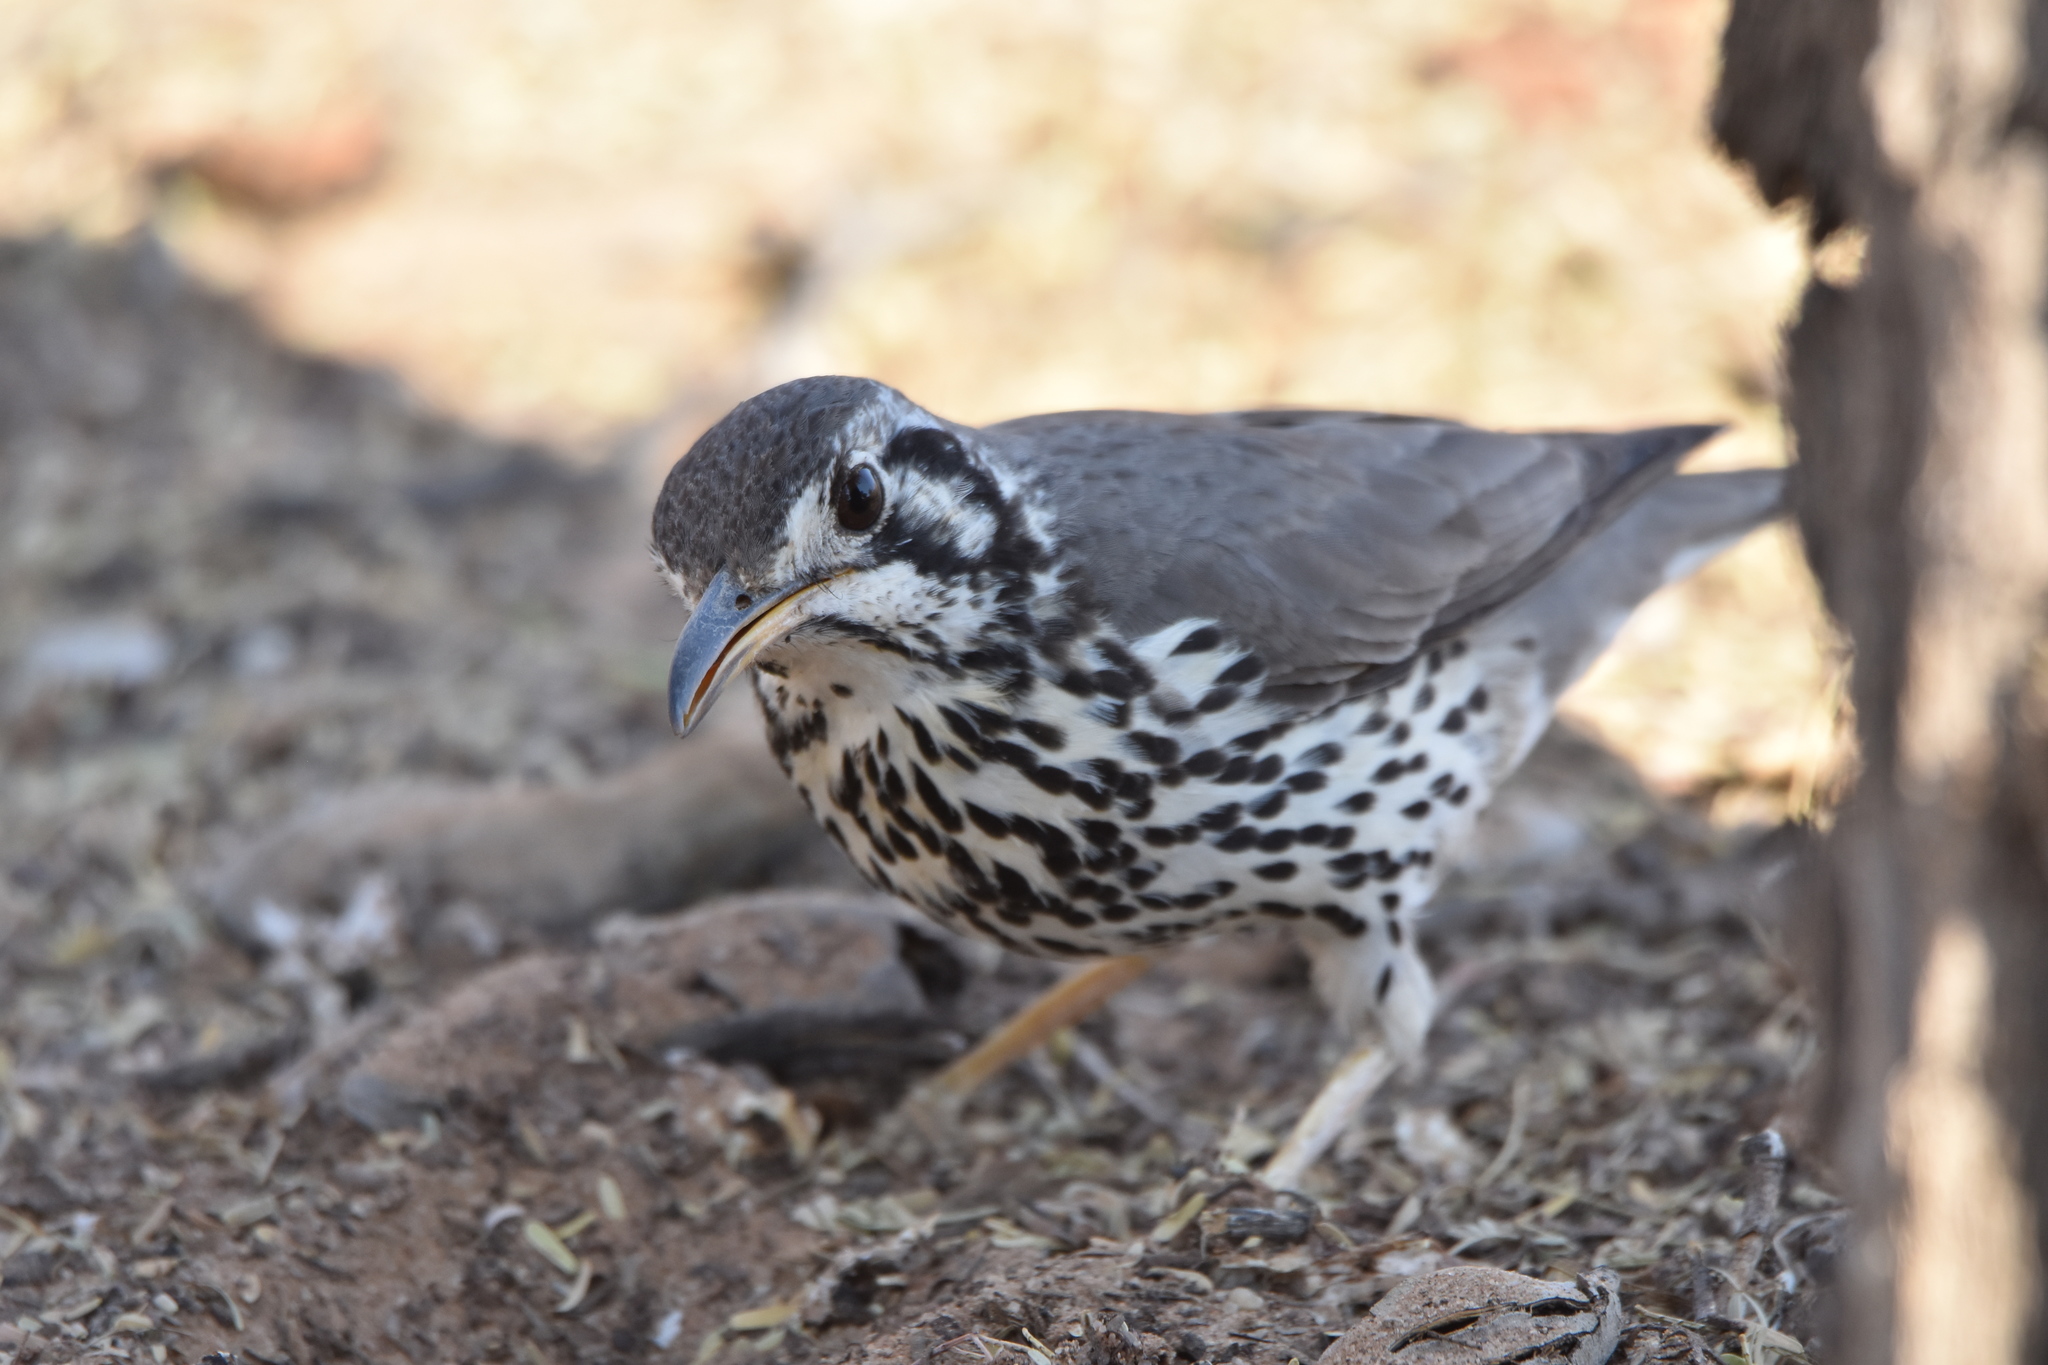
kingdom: Animalia
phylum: Chordata
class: Aves
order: Passeriformes
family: Turdidae
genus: Psophocichla
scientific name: Psophocichla litsitsirupa
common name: Groundscraper thrush
